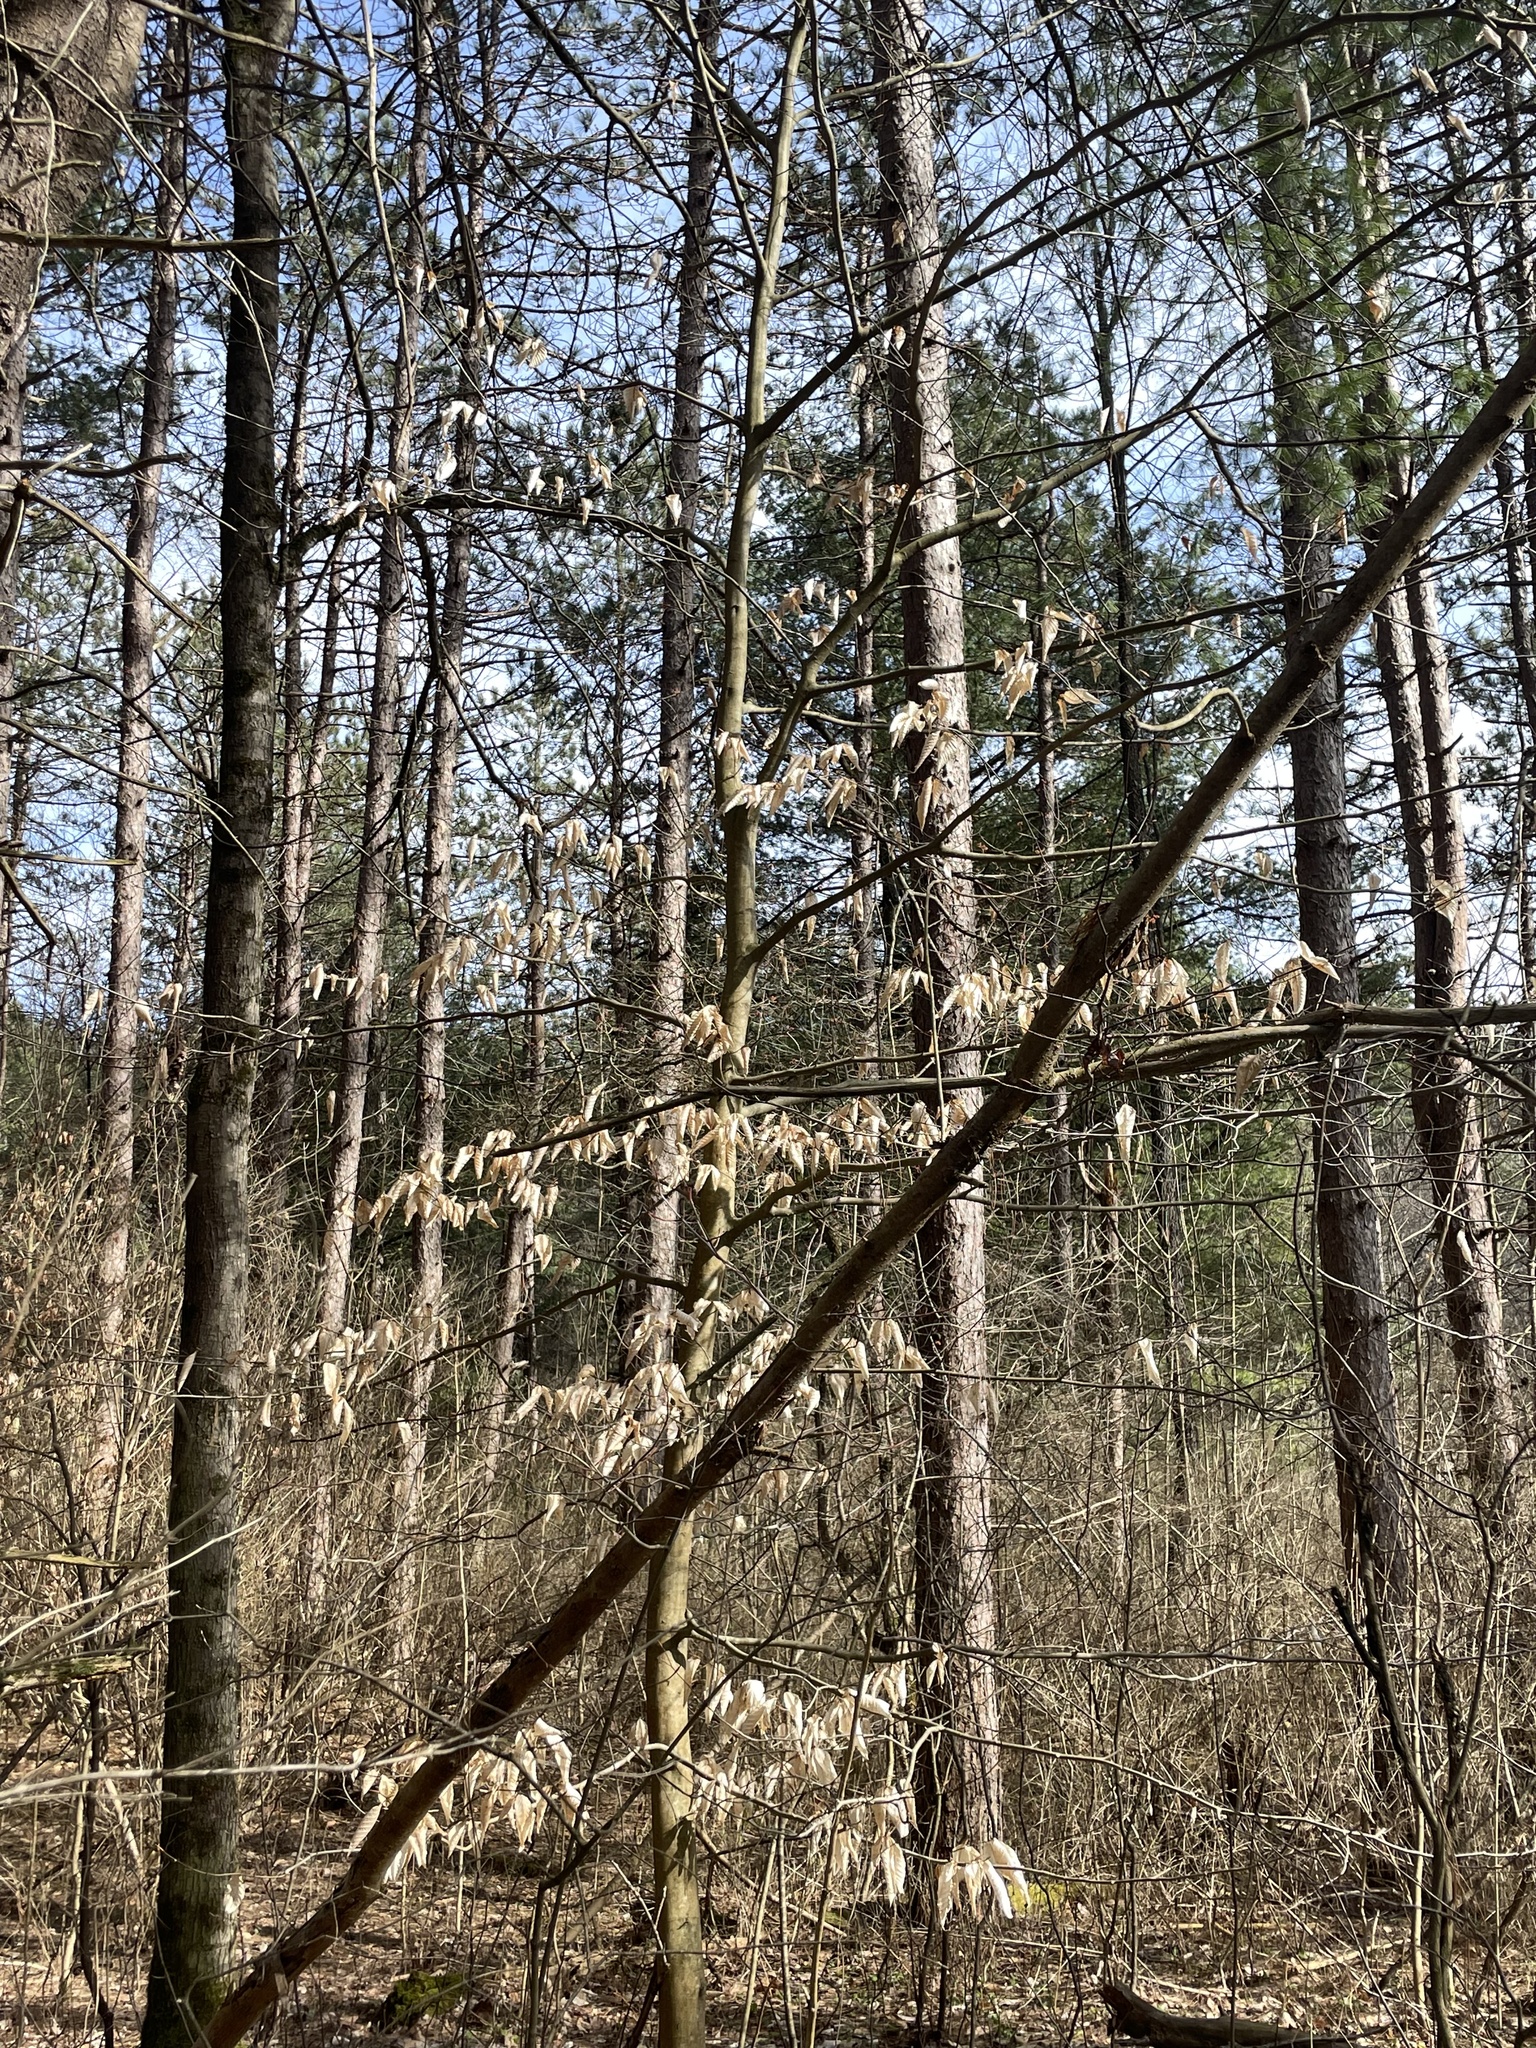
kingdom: Plantae
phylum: Tracheophyta
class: Magnoliopsida
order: Fagales
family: Fagaceae
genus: Fagus
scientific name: Fagus grandifolia
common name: American beech
